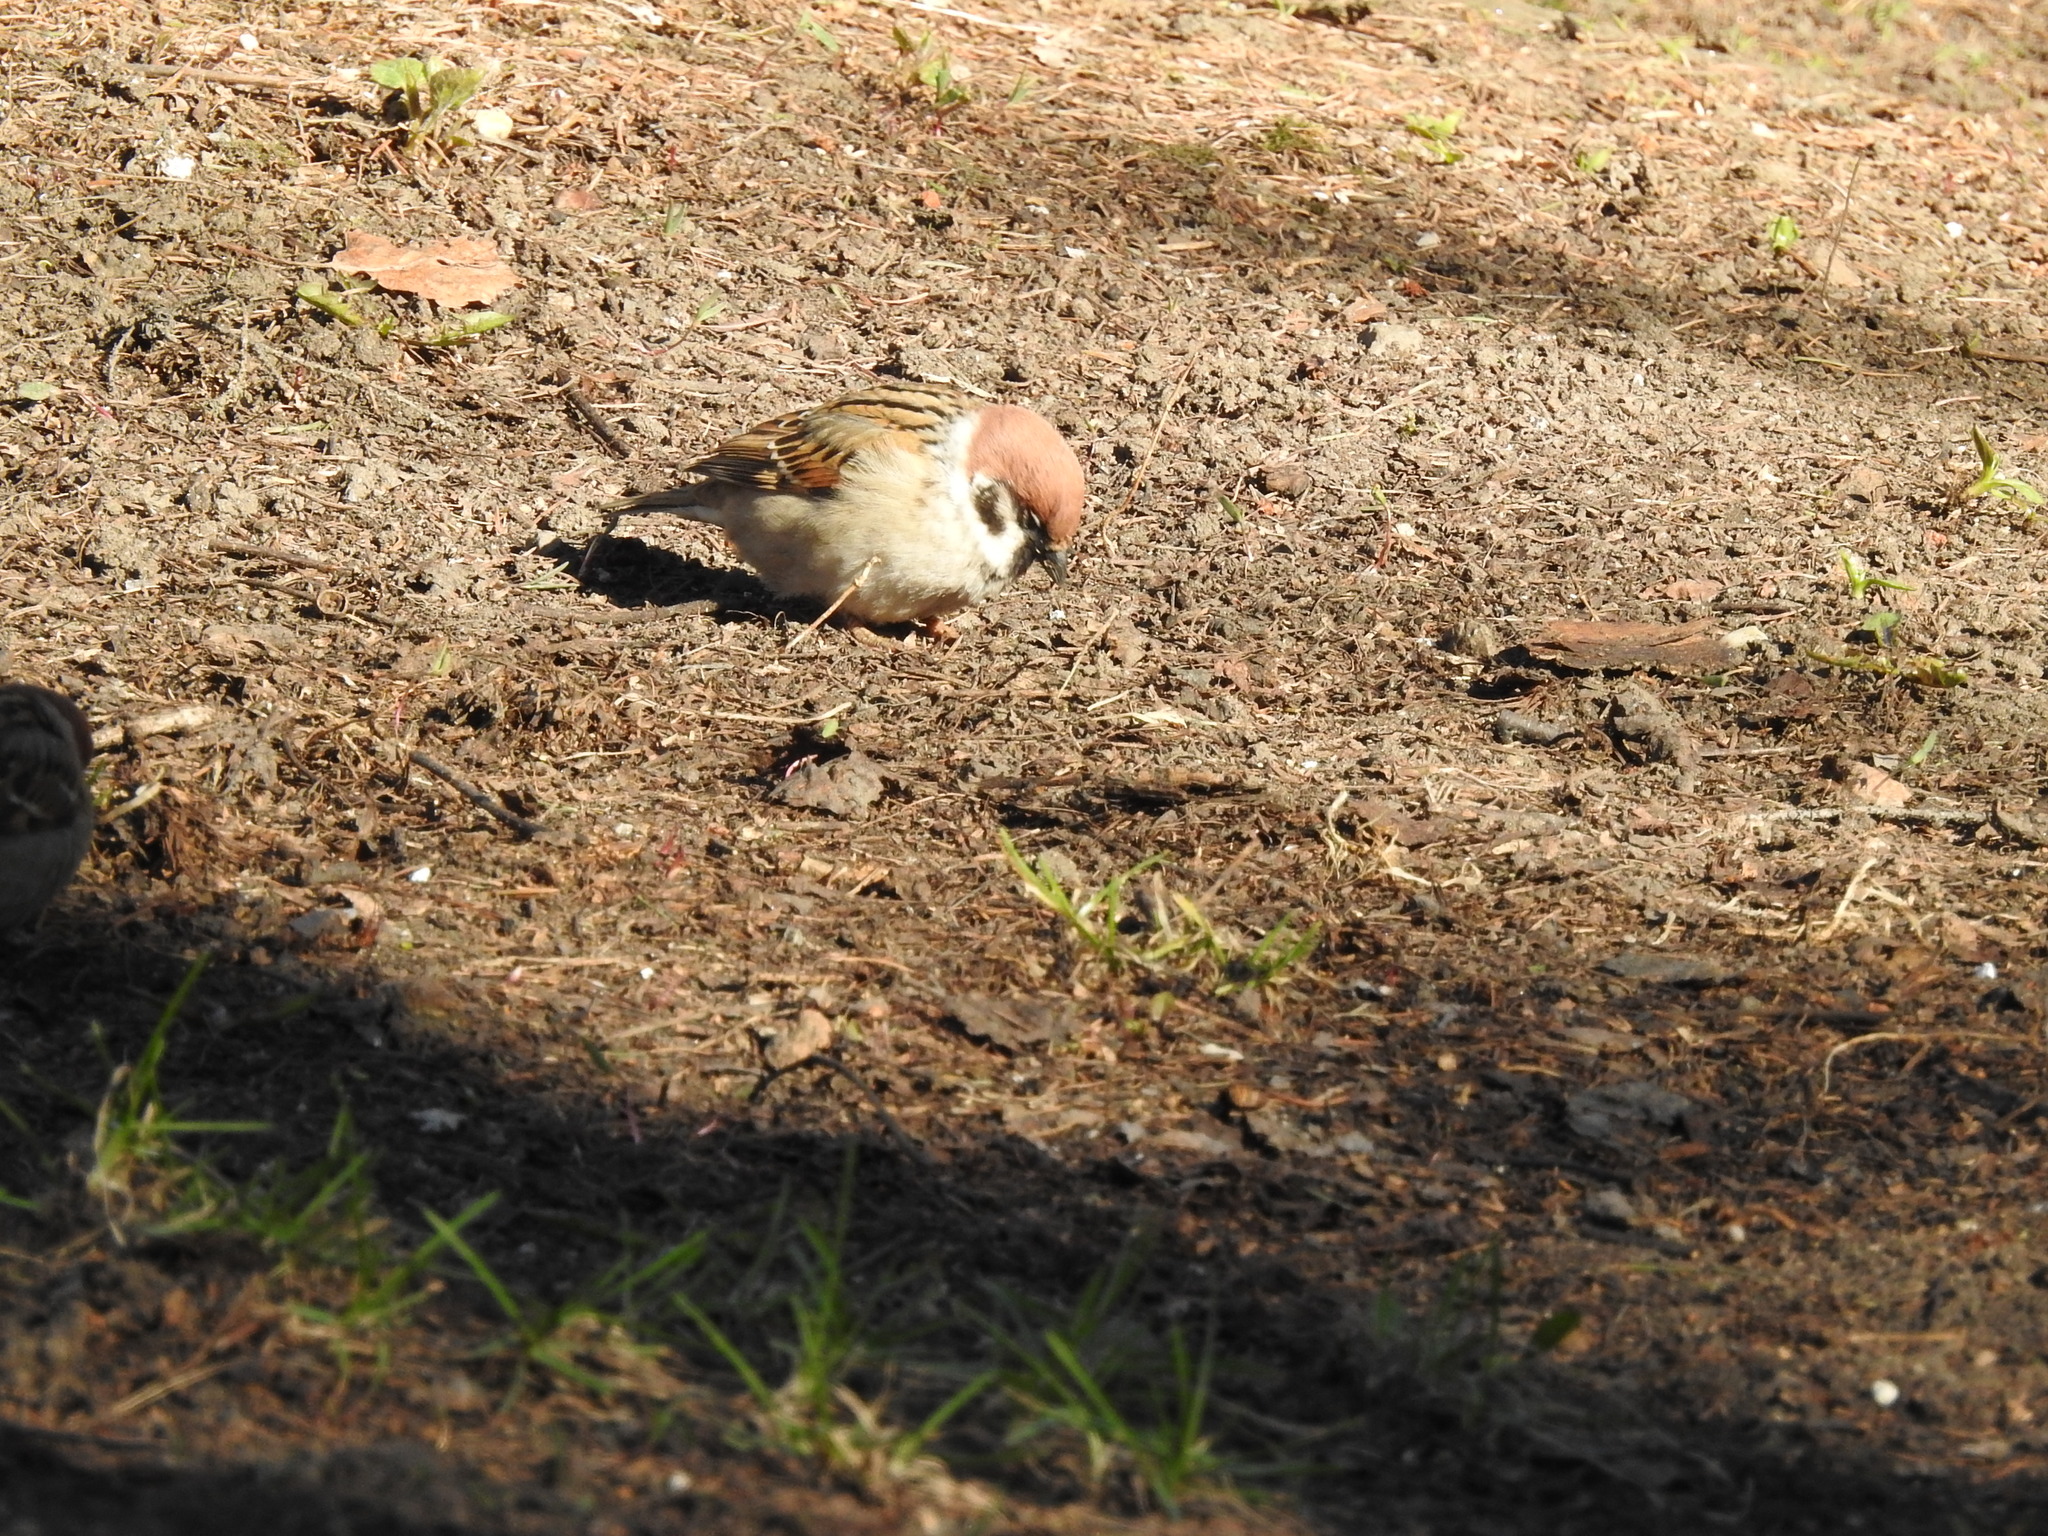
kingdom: Animalia
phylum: Chordata
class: Aves
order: Passeriformes
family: Passeridae
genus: Passer
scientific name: Passer montanus
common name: Eurasian tree sparrow
